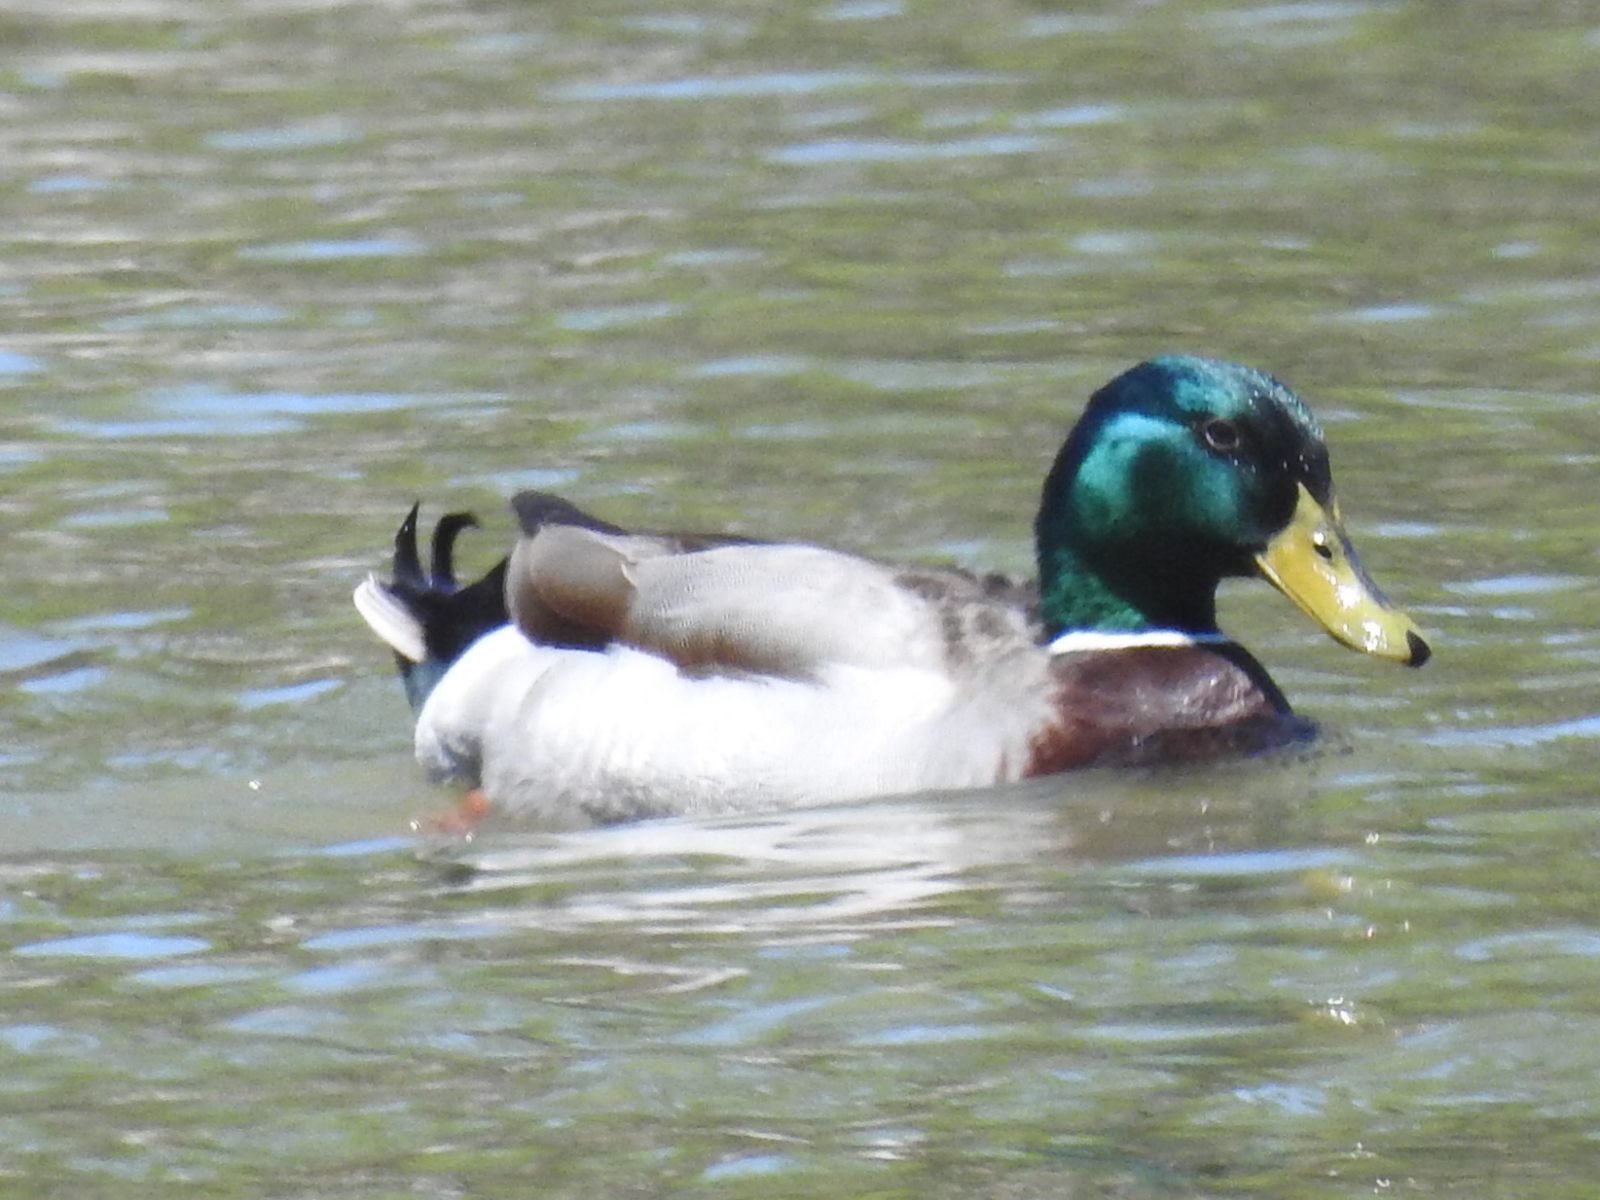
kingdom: Animalia
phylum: Chordata
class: Aves
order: Anseriformes
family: Anatidae
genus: Anas
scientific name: Anas platyrhynchos
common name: Mallard
